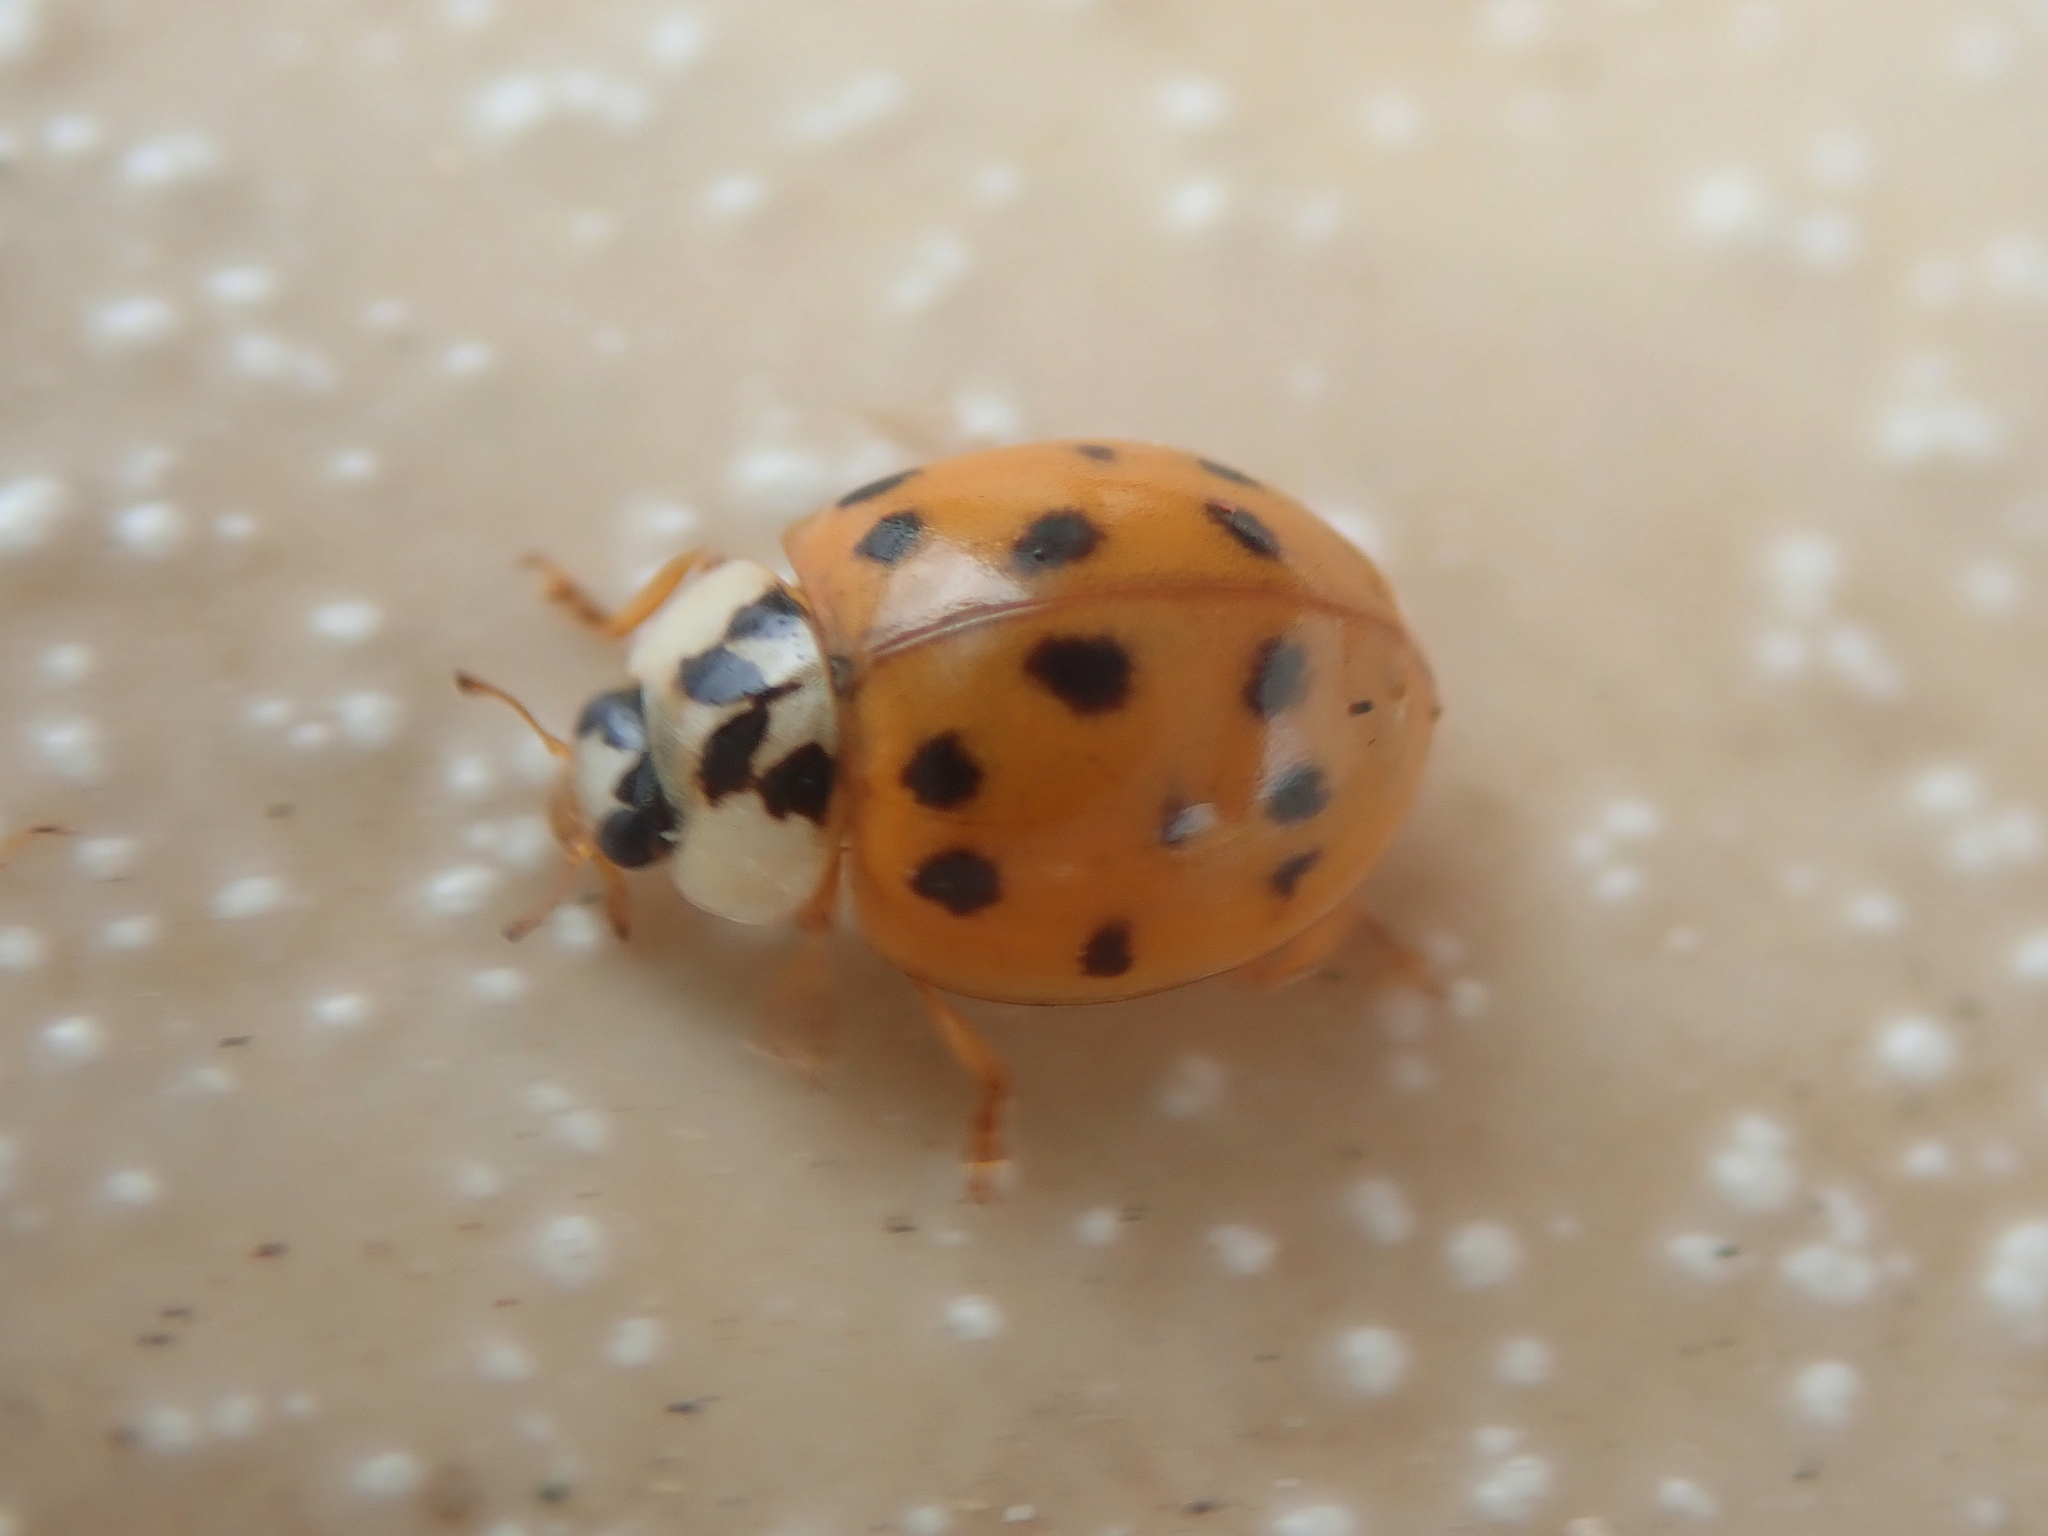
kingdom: Animalia
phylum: Arthropoda
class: Insecta
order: Coleoptera
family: Coccinellidae
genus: Harmonia
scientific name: Harmonia axyridis
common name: Harlequin ladybird
